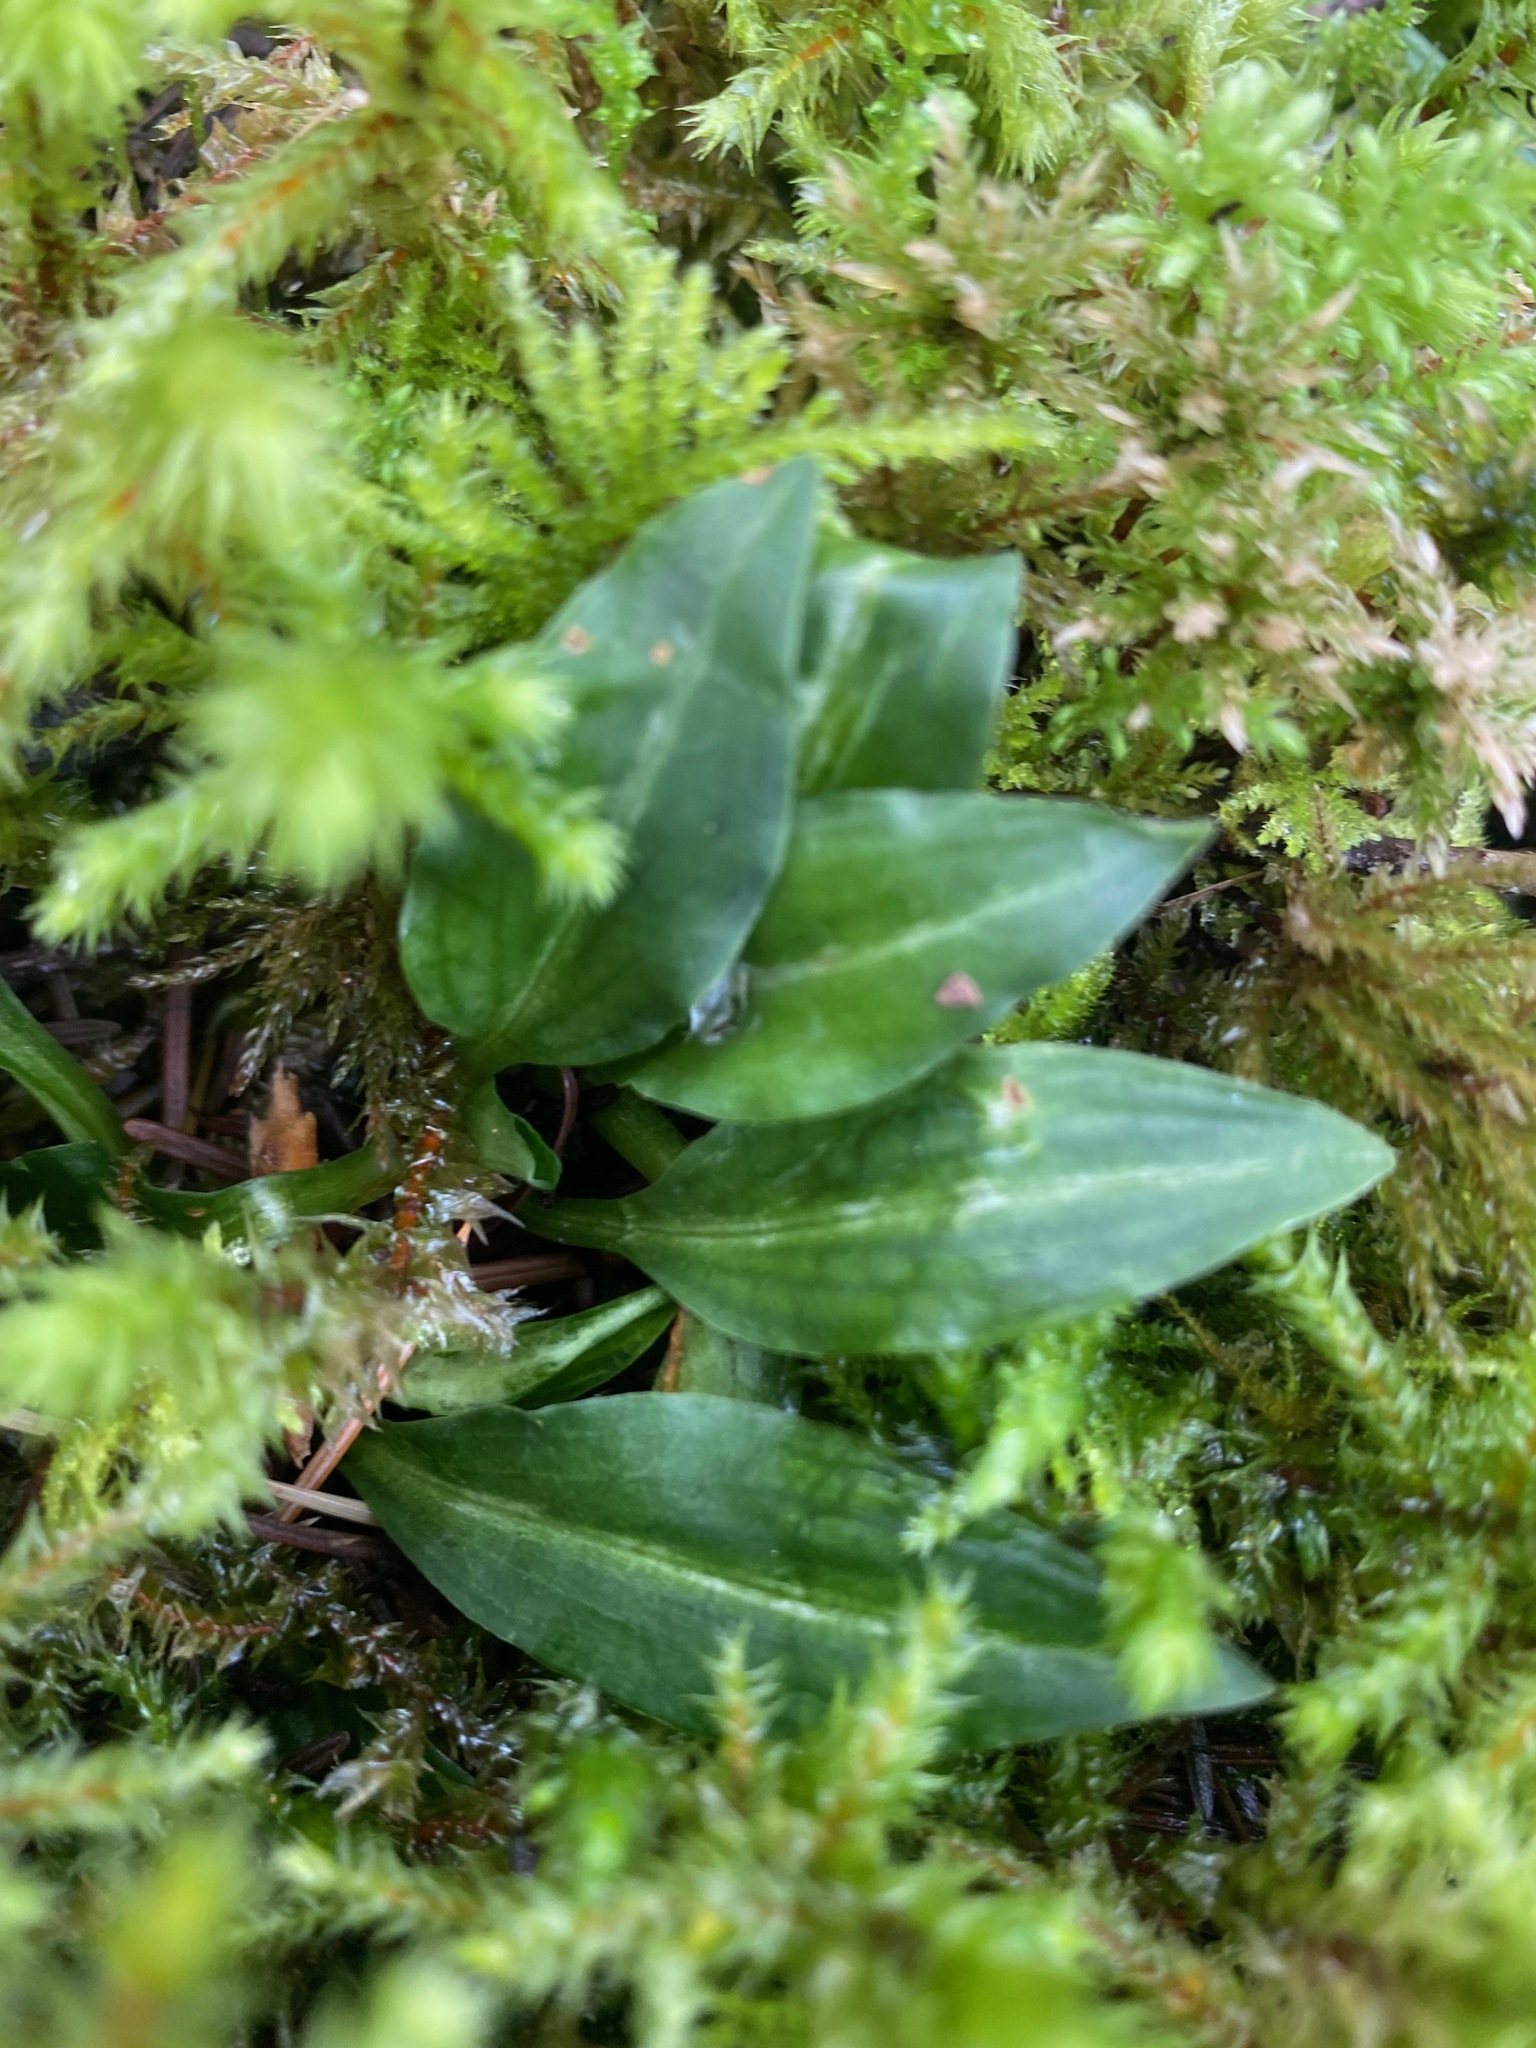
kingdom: Plantae
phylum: Tracheophyta
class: Liliopsida
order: Asparagales
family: Orchidaceae
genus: Goodyera
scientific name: Goodyera oblongifolia
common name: Giant rattlesnake-plantain
